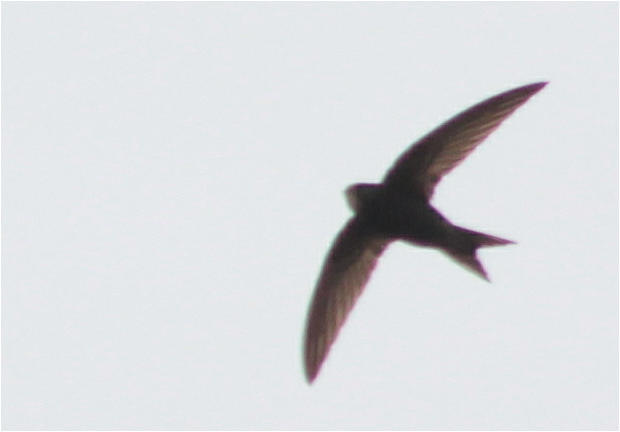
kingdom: Animalia
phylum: Chordata
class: Aves
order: Apodiformes
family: Apodidae
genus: Apus
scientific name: Apus apus
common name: Common swift
